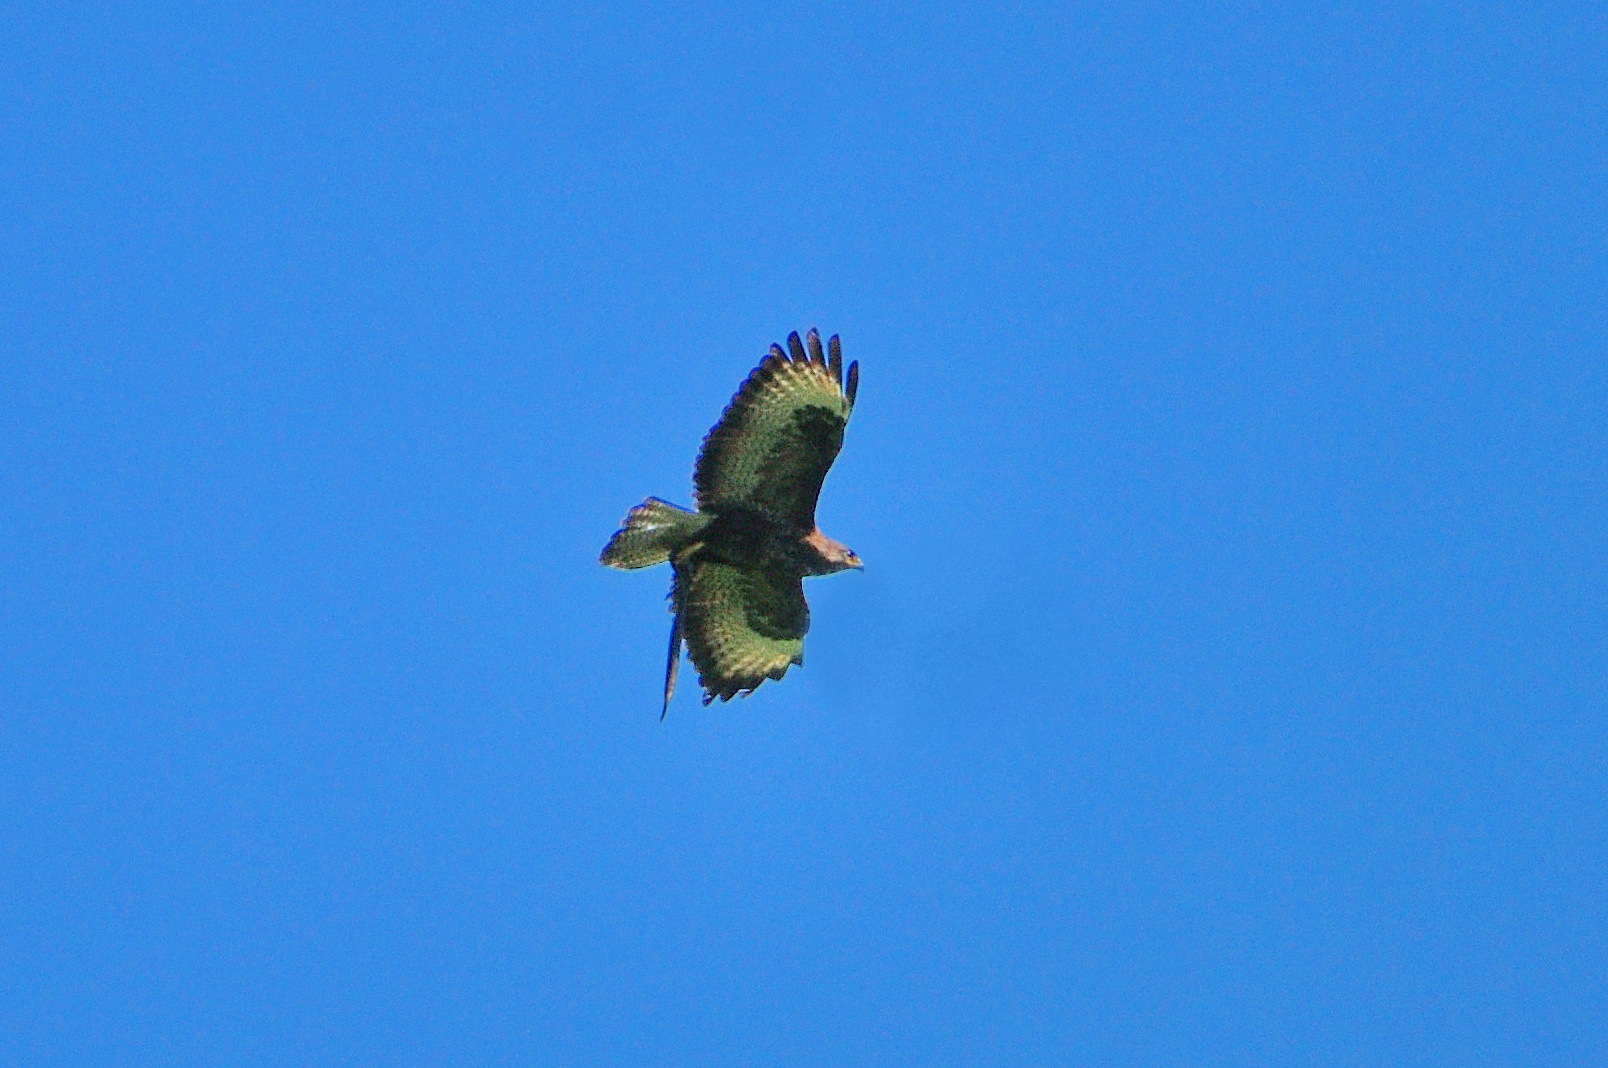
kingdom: Animalia
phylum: Chordata
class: Aves
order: Accipitriformes
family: Accipitridae
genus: Buteo
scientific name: Buteo buteo
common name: Common buzzard
